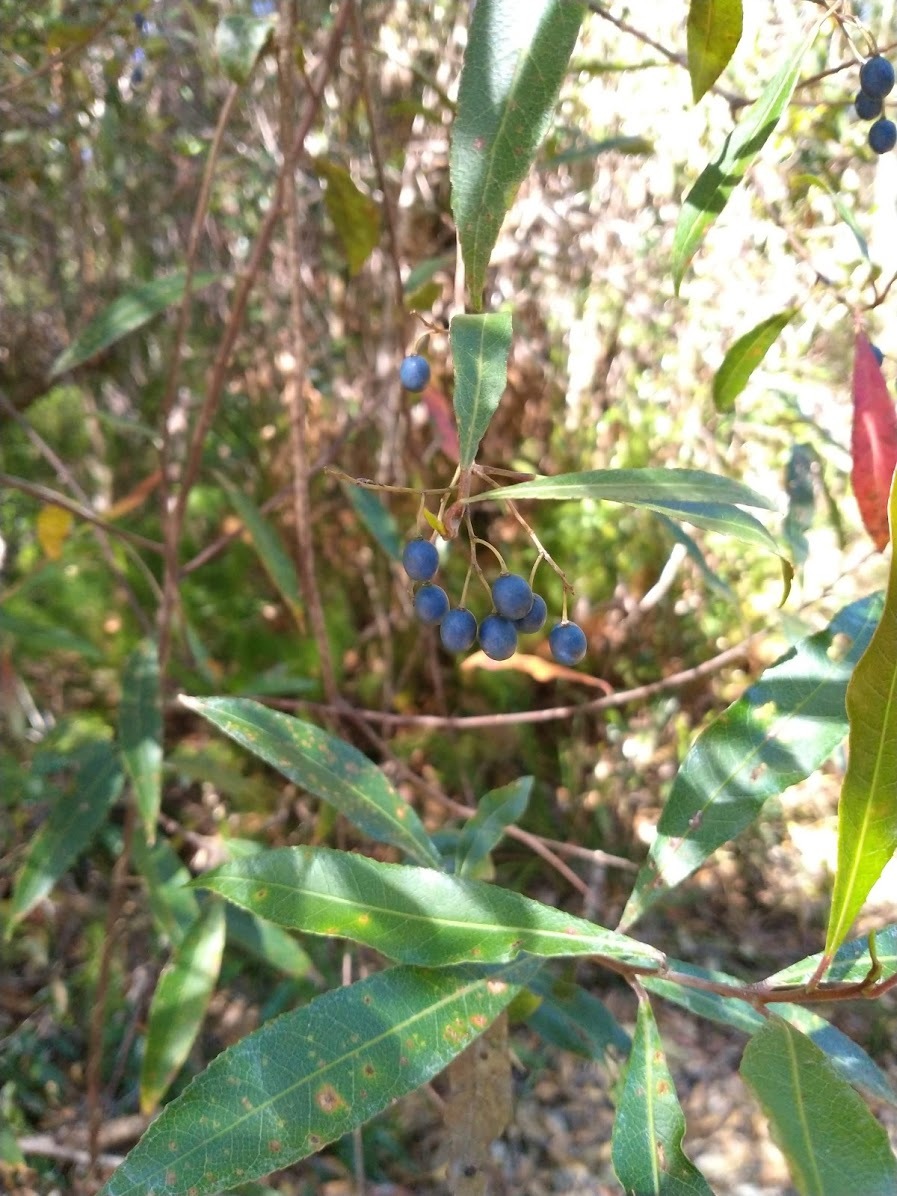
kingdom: Plantae
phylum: Tracheophyta
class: Magnoliopsida
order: Oxalidales
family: Elaeocarpaceae
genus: Elaeocarpus
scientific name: Elaeocarpus reticulatus
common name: Ash quandong
